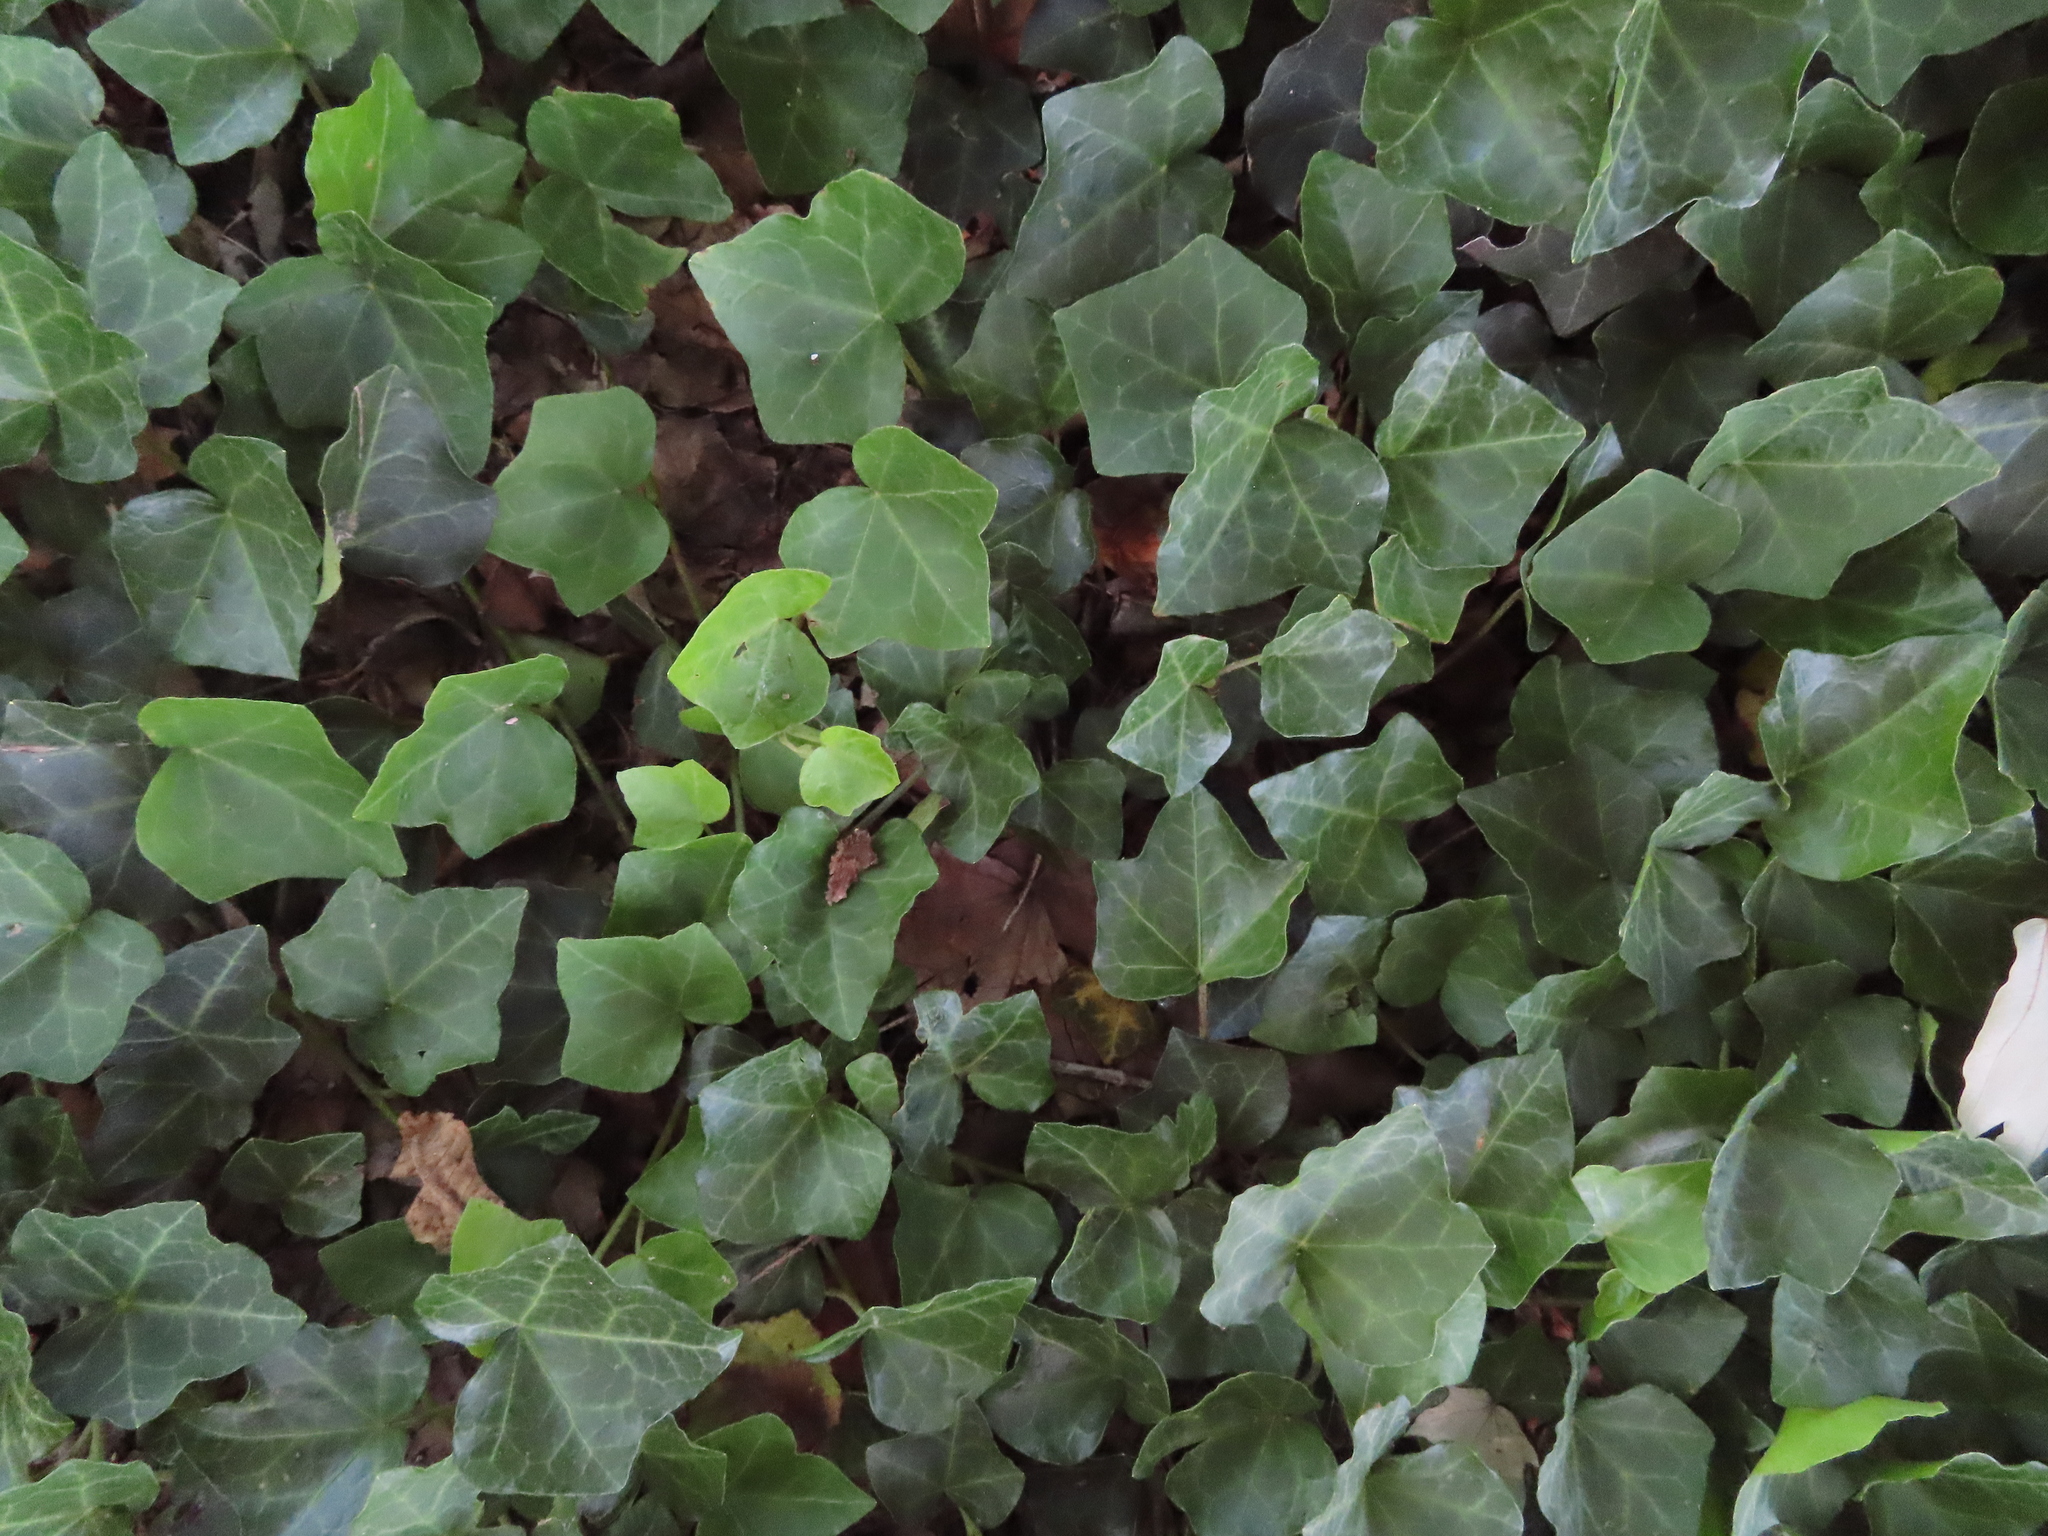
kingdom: Plantae
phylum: Tracheophyta
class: Magnoliopsida
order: Apiales
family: Araliaceae
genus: Hedera
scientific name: Hedera helix
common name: Ivy
